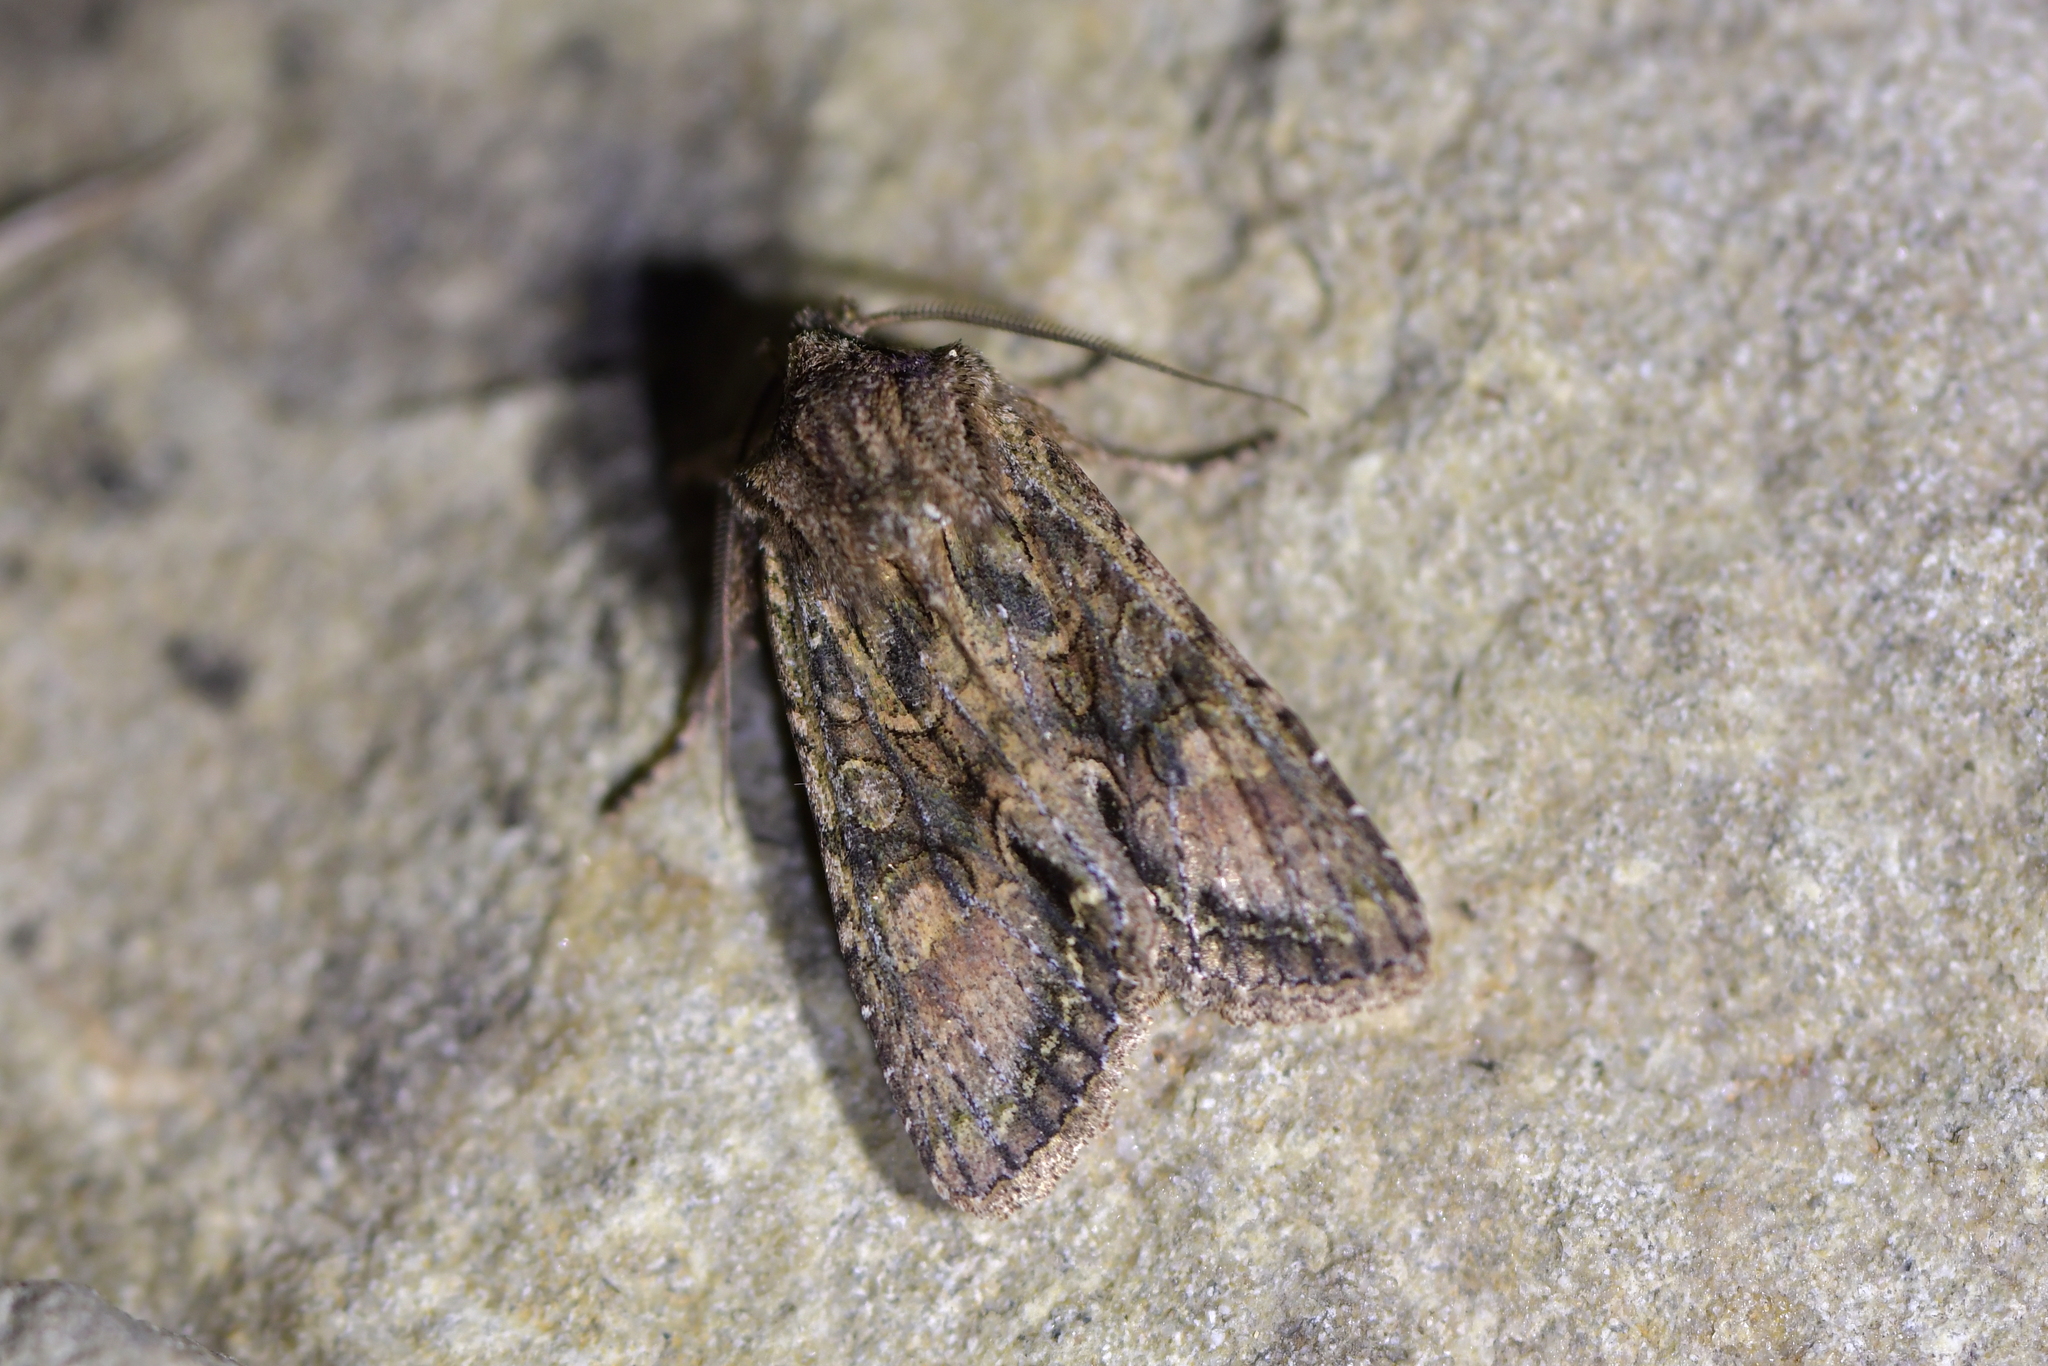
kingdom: Animalia
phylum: Arthropoda
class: Insecta
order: Lepidoptera
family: Noctuidae
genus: Ichneutica
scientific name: Ichneutica mutans
